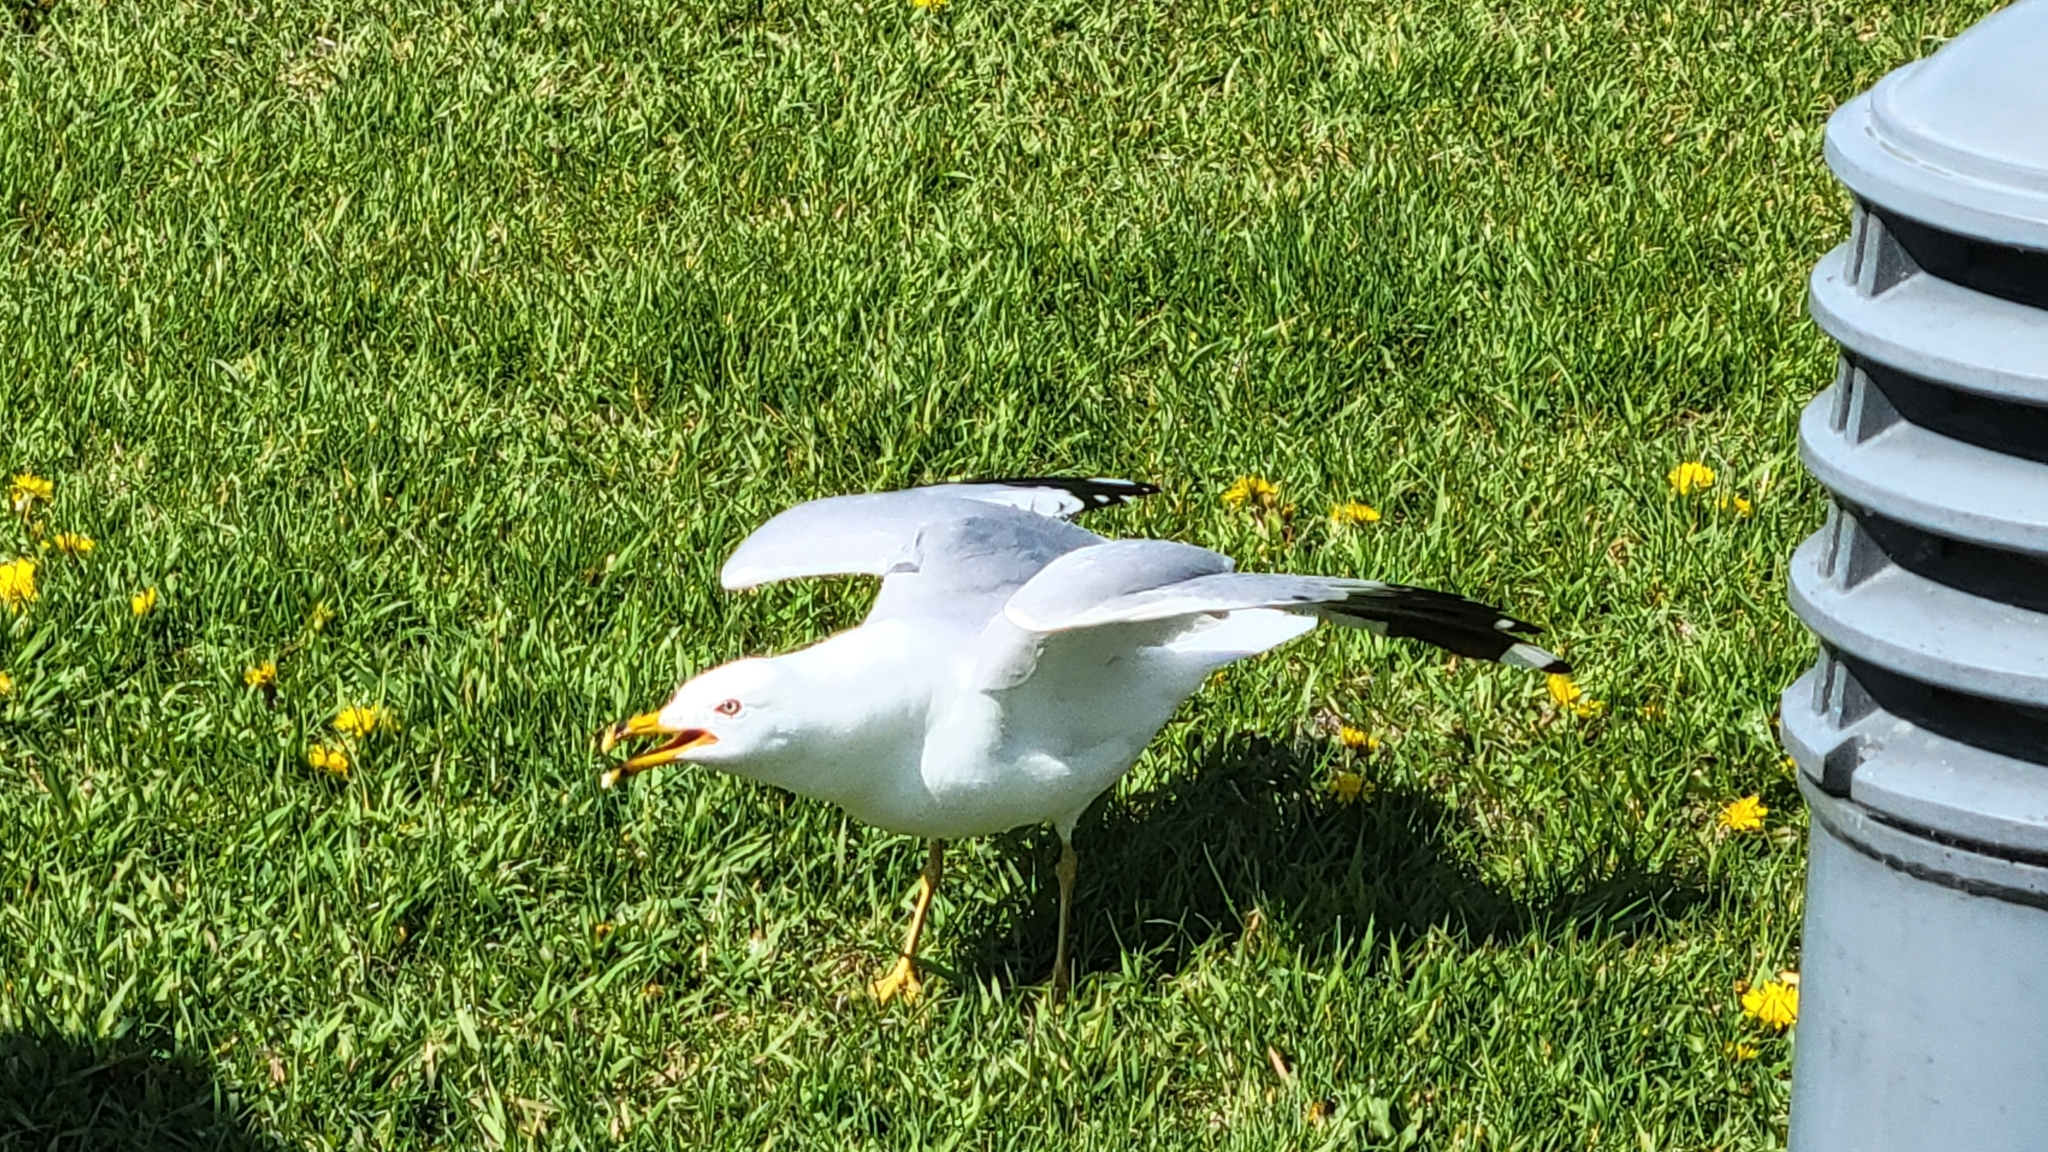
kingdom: Animalia
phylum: Chordata
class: Aves
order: Charadriiformes
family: Laridae
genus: Larus
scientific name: Larus delawarensis
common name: Ring-billed gull
